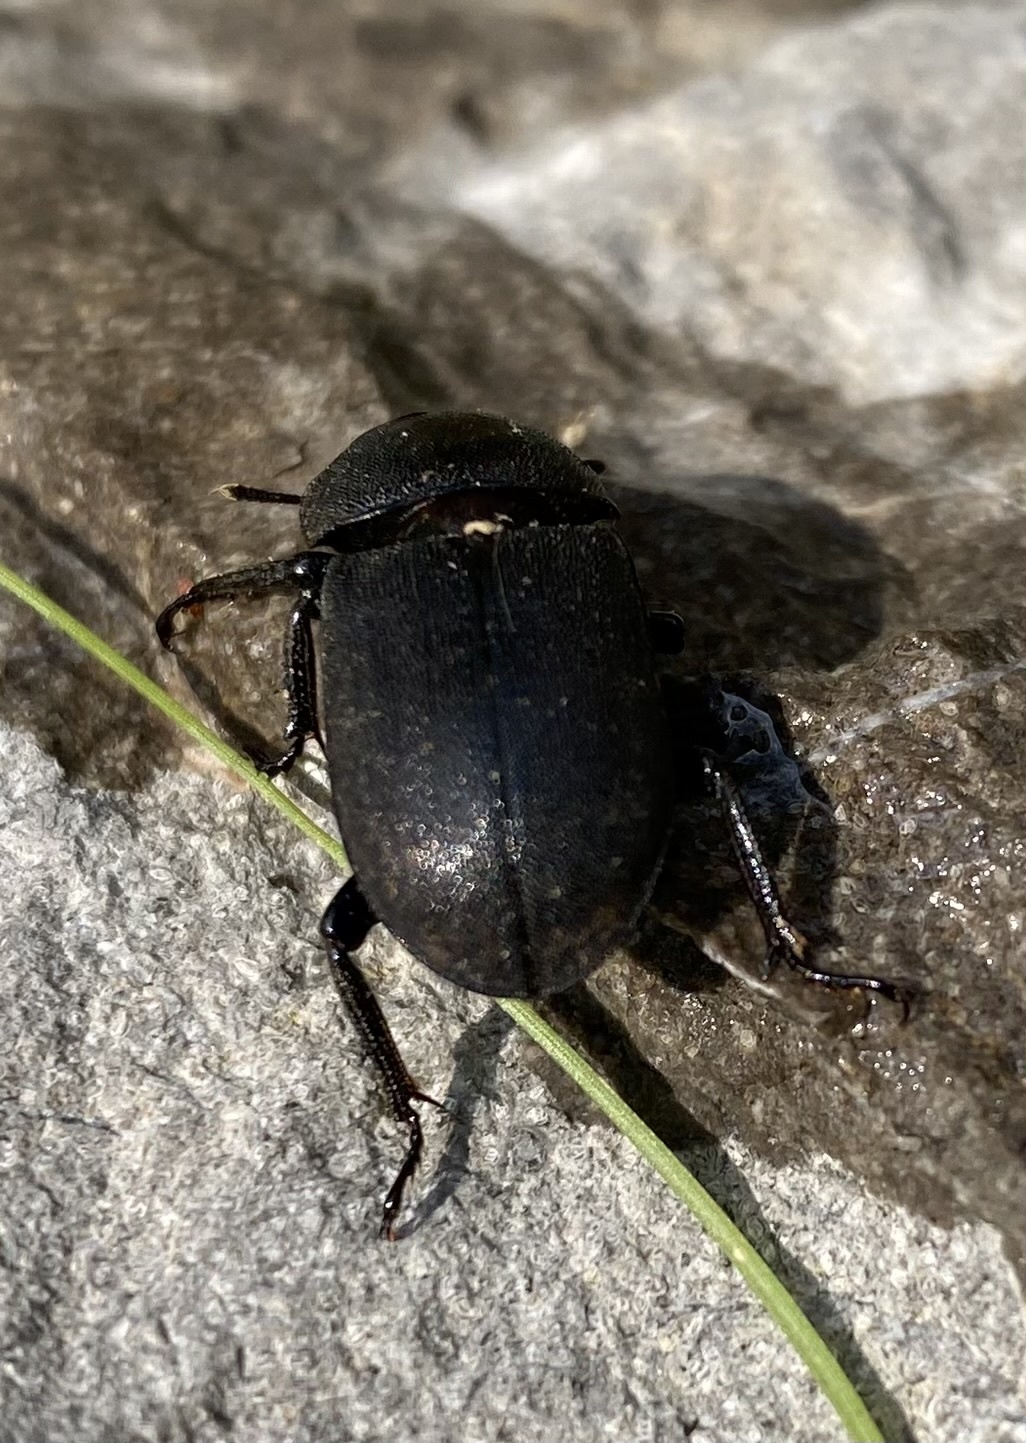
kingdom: Animalia
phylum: Arthropoda
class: Insecta
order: Coleoptera
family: Lucanidae
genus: Dorcus
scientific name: Dorcus parallelipipedus
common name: Lesser stag beetle
